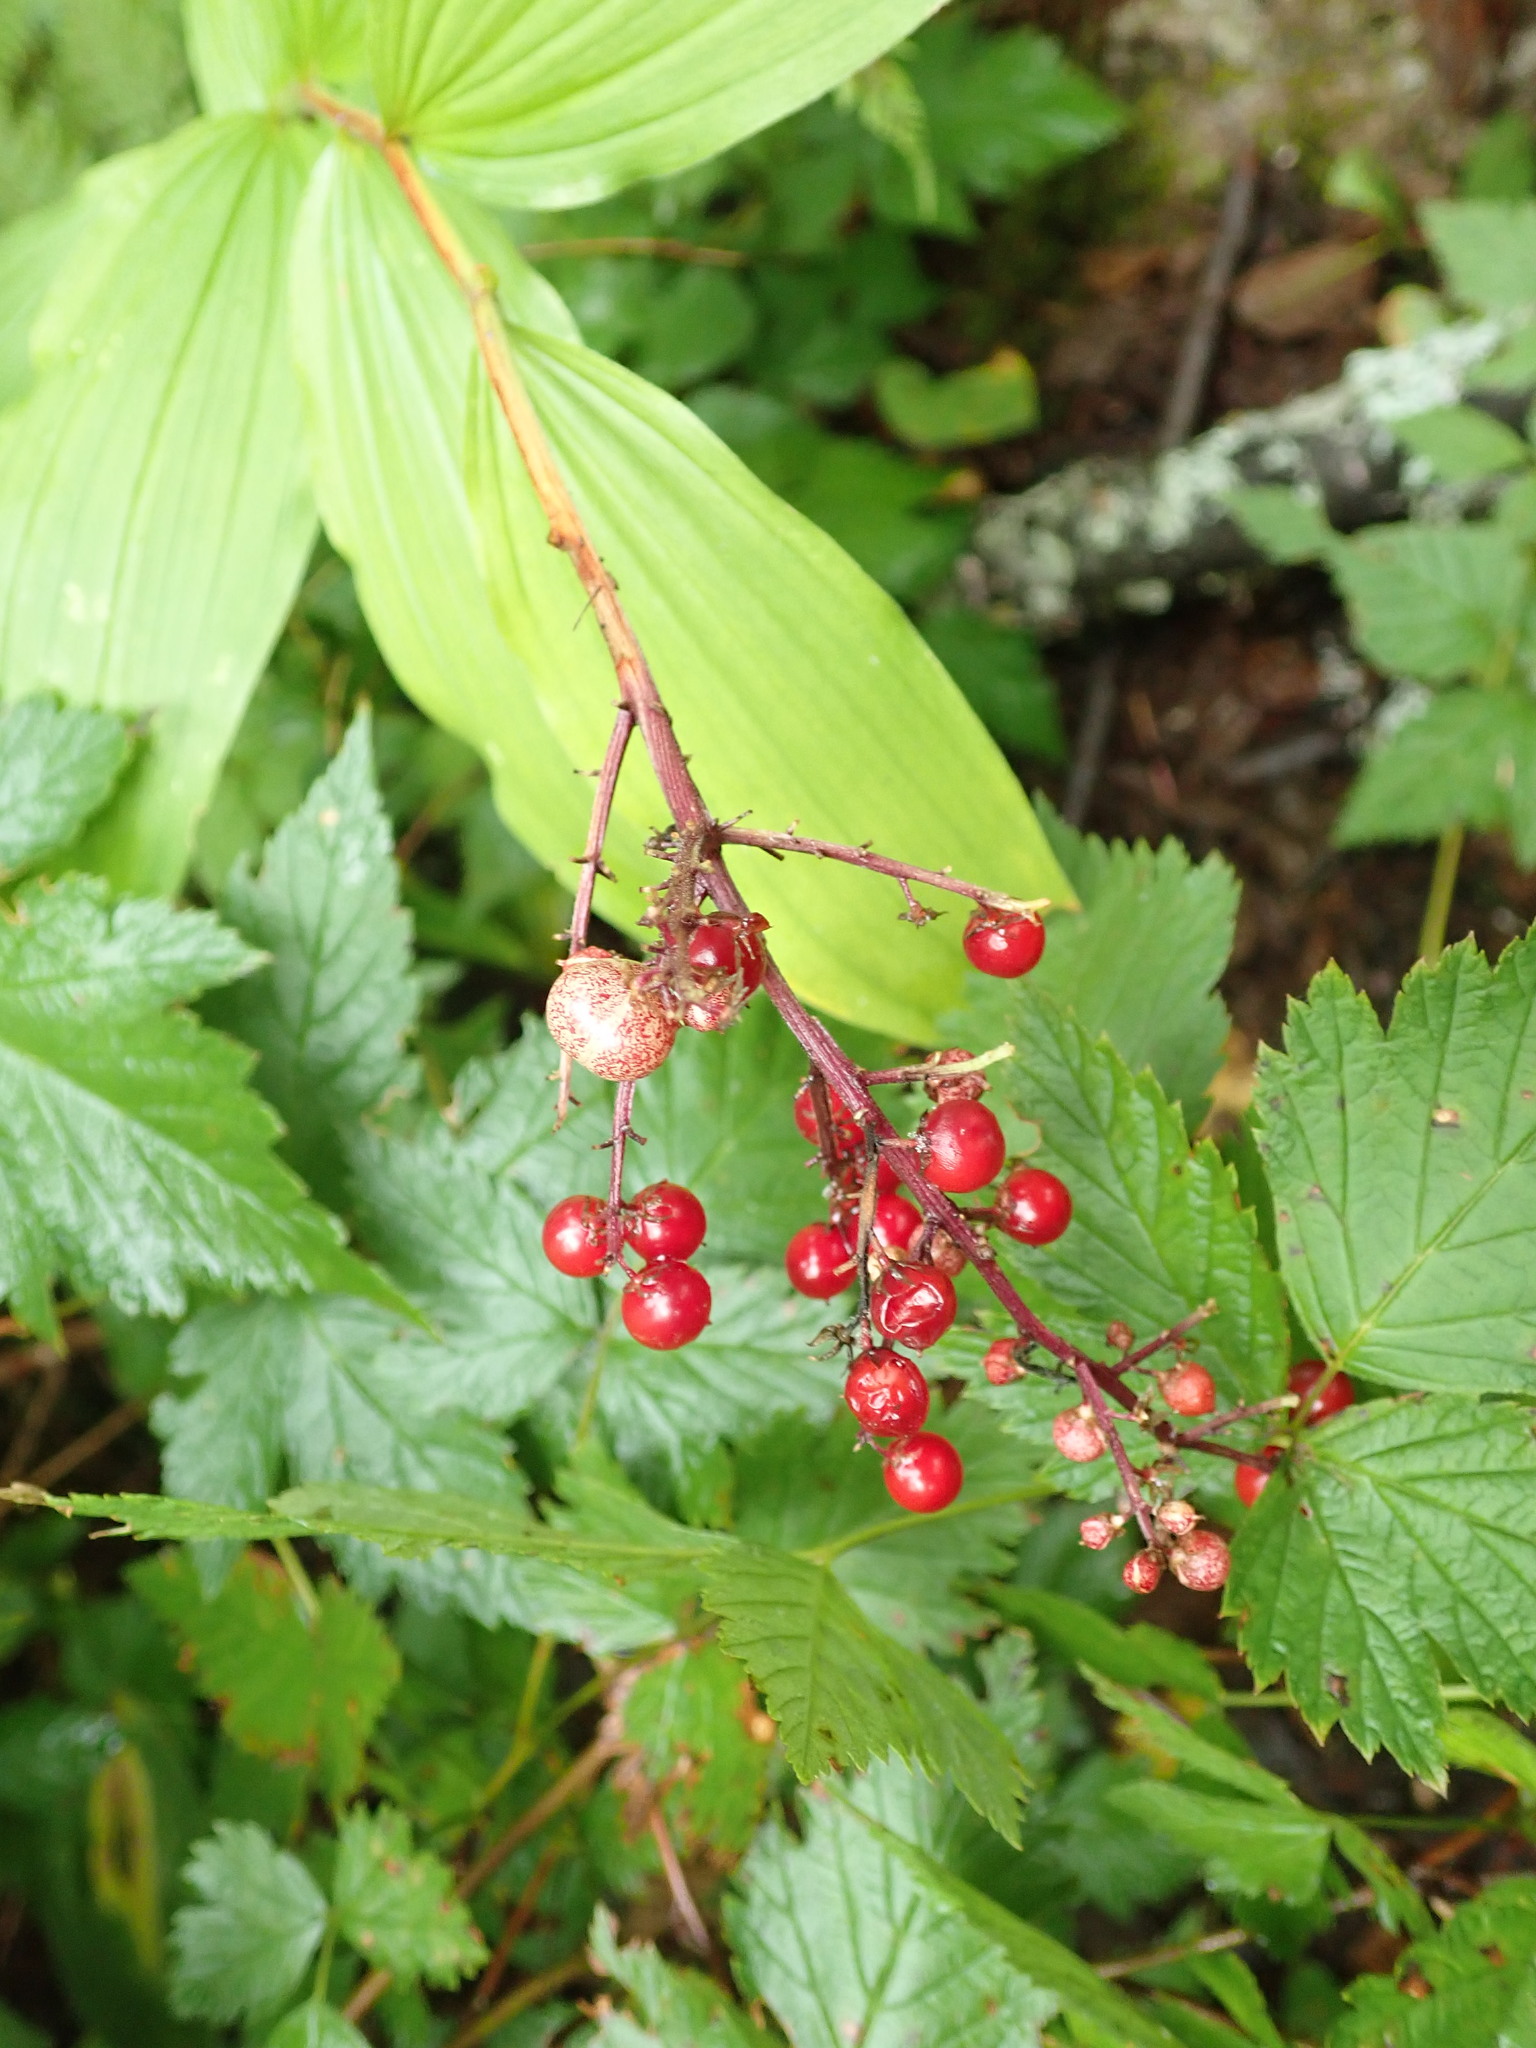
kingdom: Plantae
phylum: Tracheophyta
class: Liliopsida
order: Asparagales
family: Asparagaceae
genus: Maianthemum
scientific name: Maianthemum racemosum
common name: False spikenard
